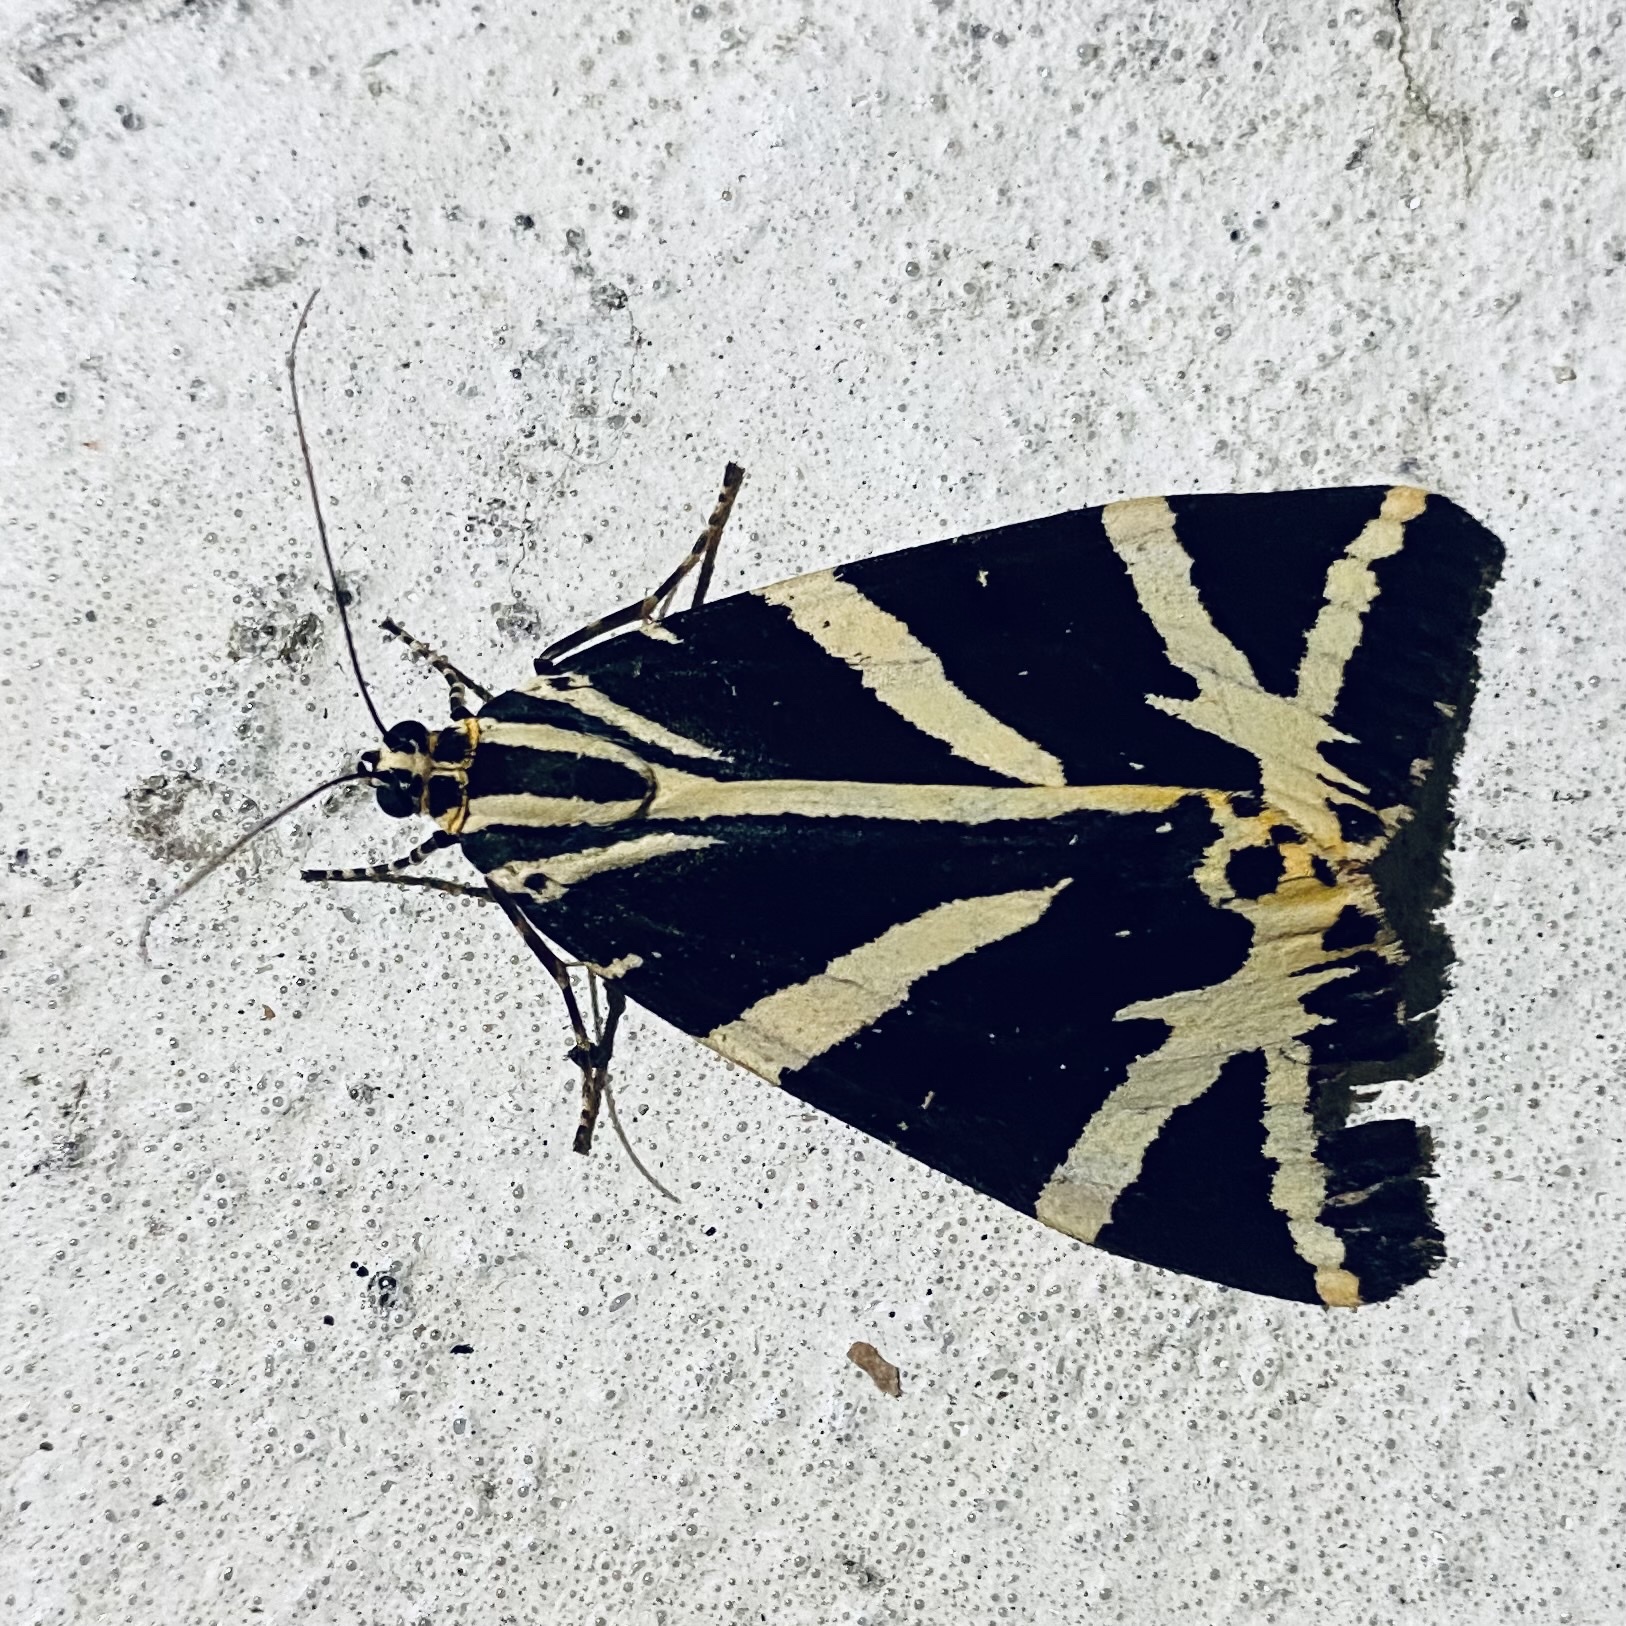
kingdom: Animalia
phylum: Arthropoda
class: Insecta
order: Lepidoptera
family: Erebidae
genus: Euplagia
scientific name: Euplagia quadripunctaria
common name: Jersey tiger
